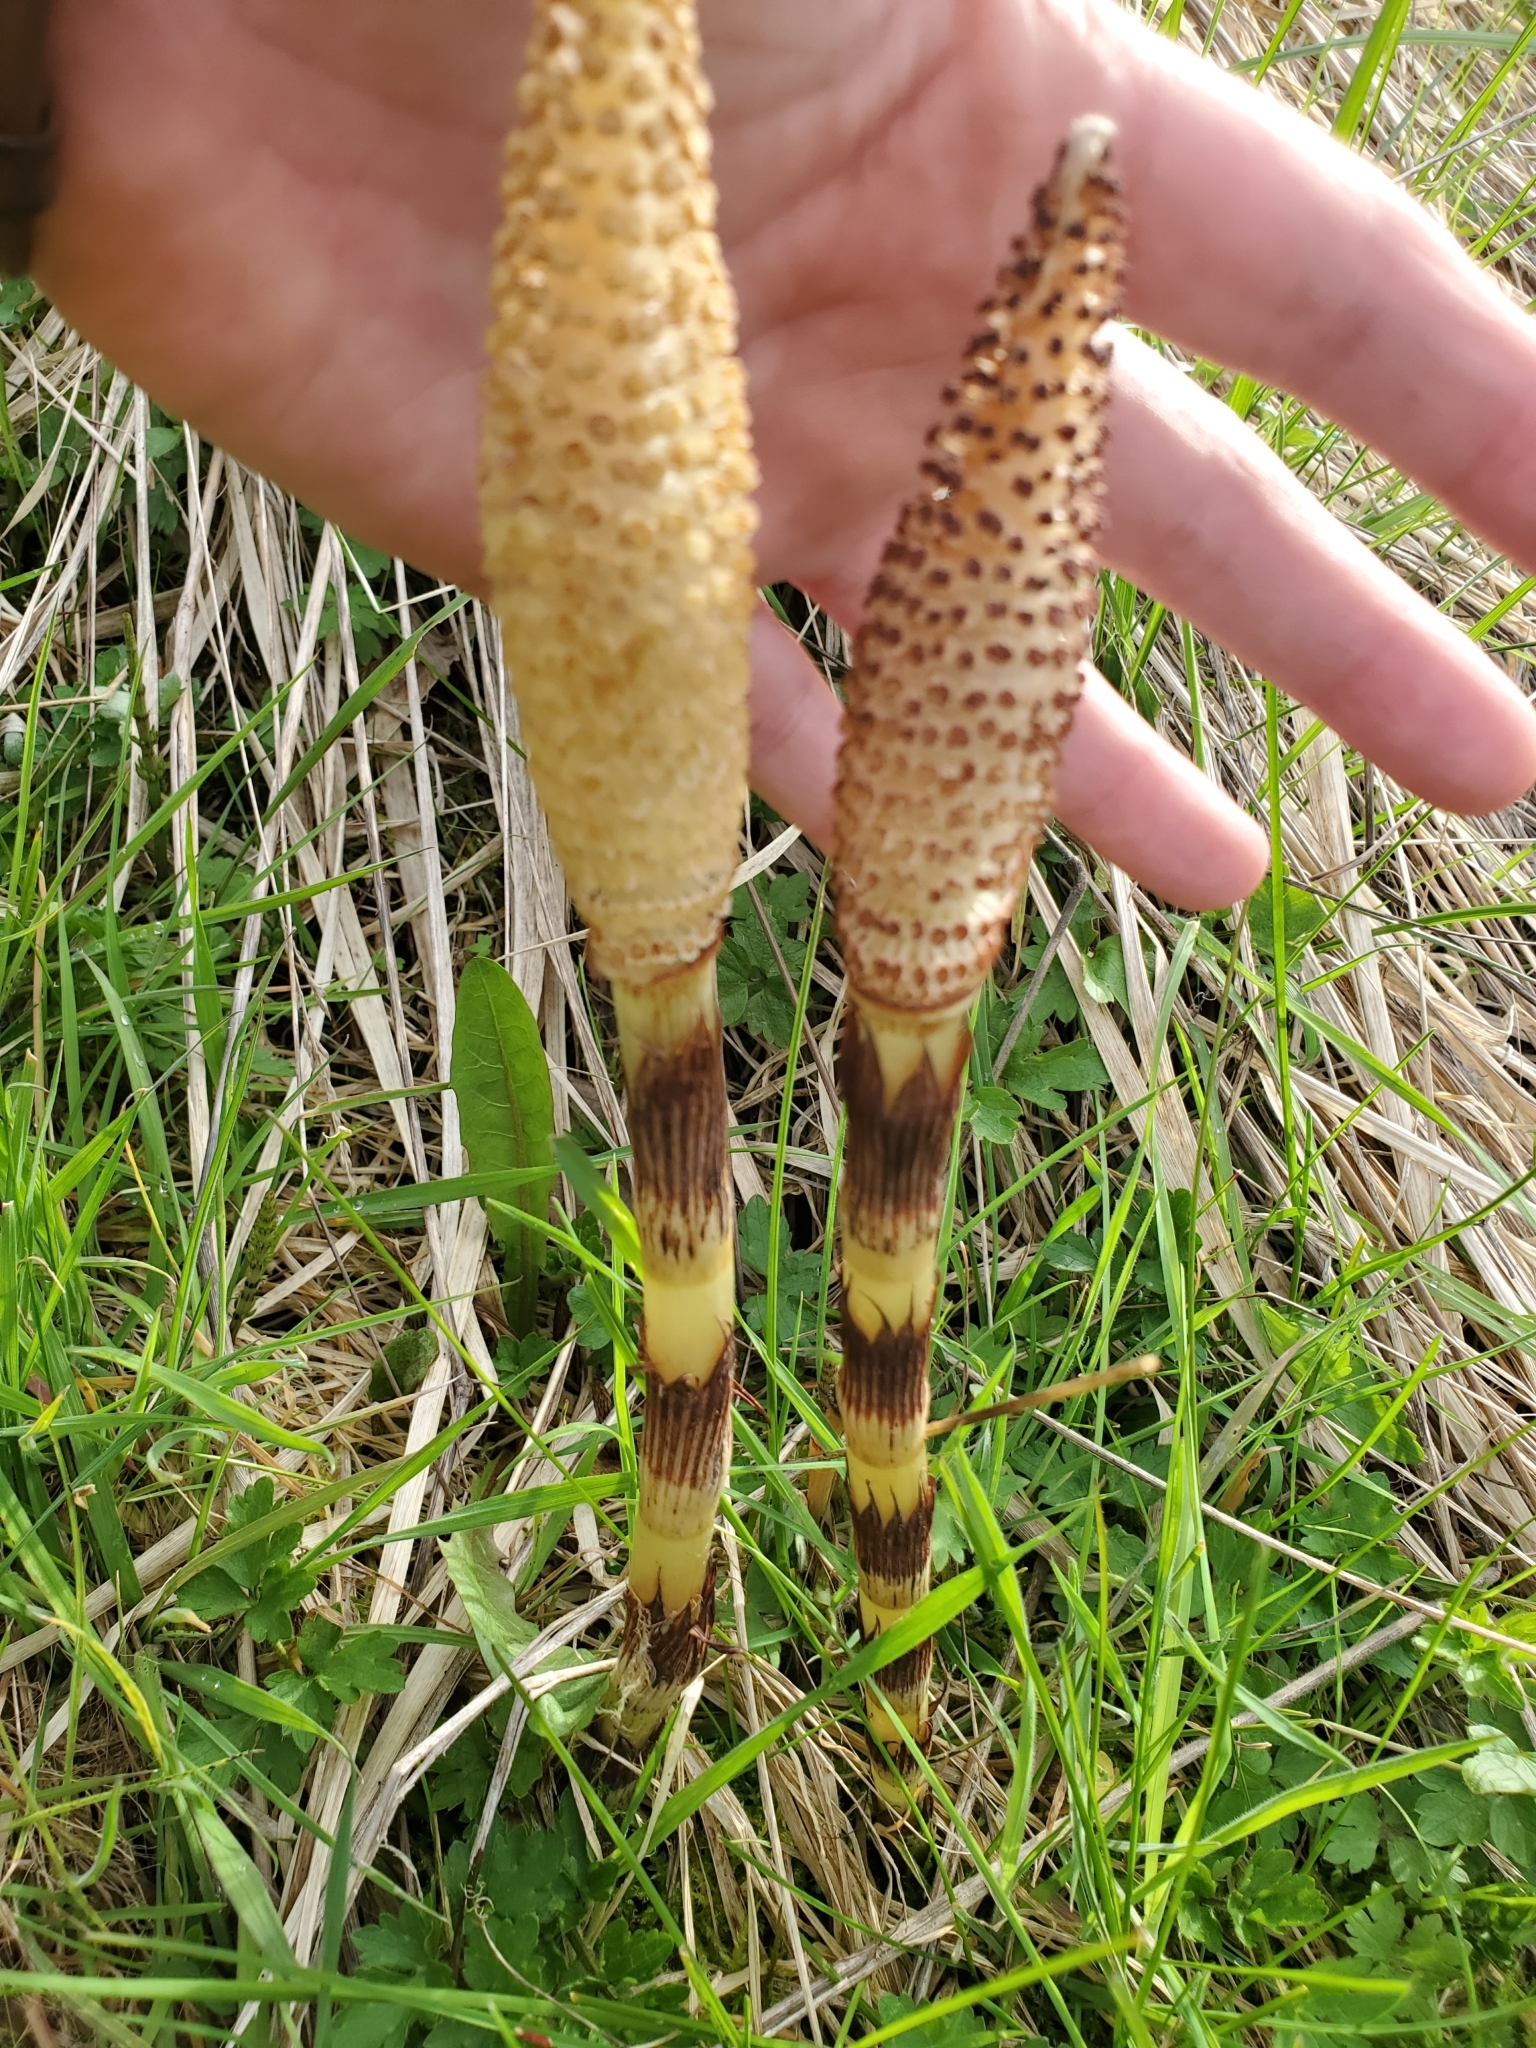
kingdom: Plantae
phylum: Tracheophyta
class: Polypodiopsida
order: Equisetales
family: Equisetaceae
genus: Equisetum
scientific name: Equisetum braunii
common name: Braun's horsetail
